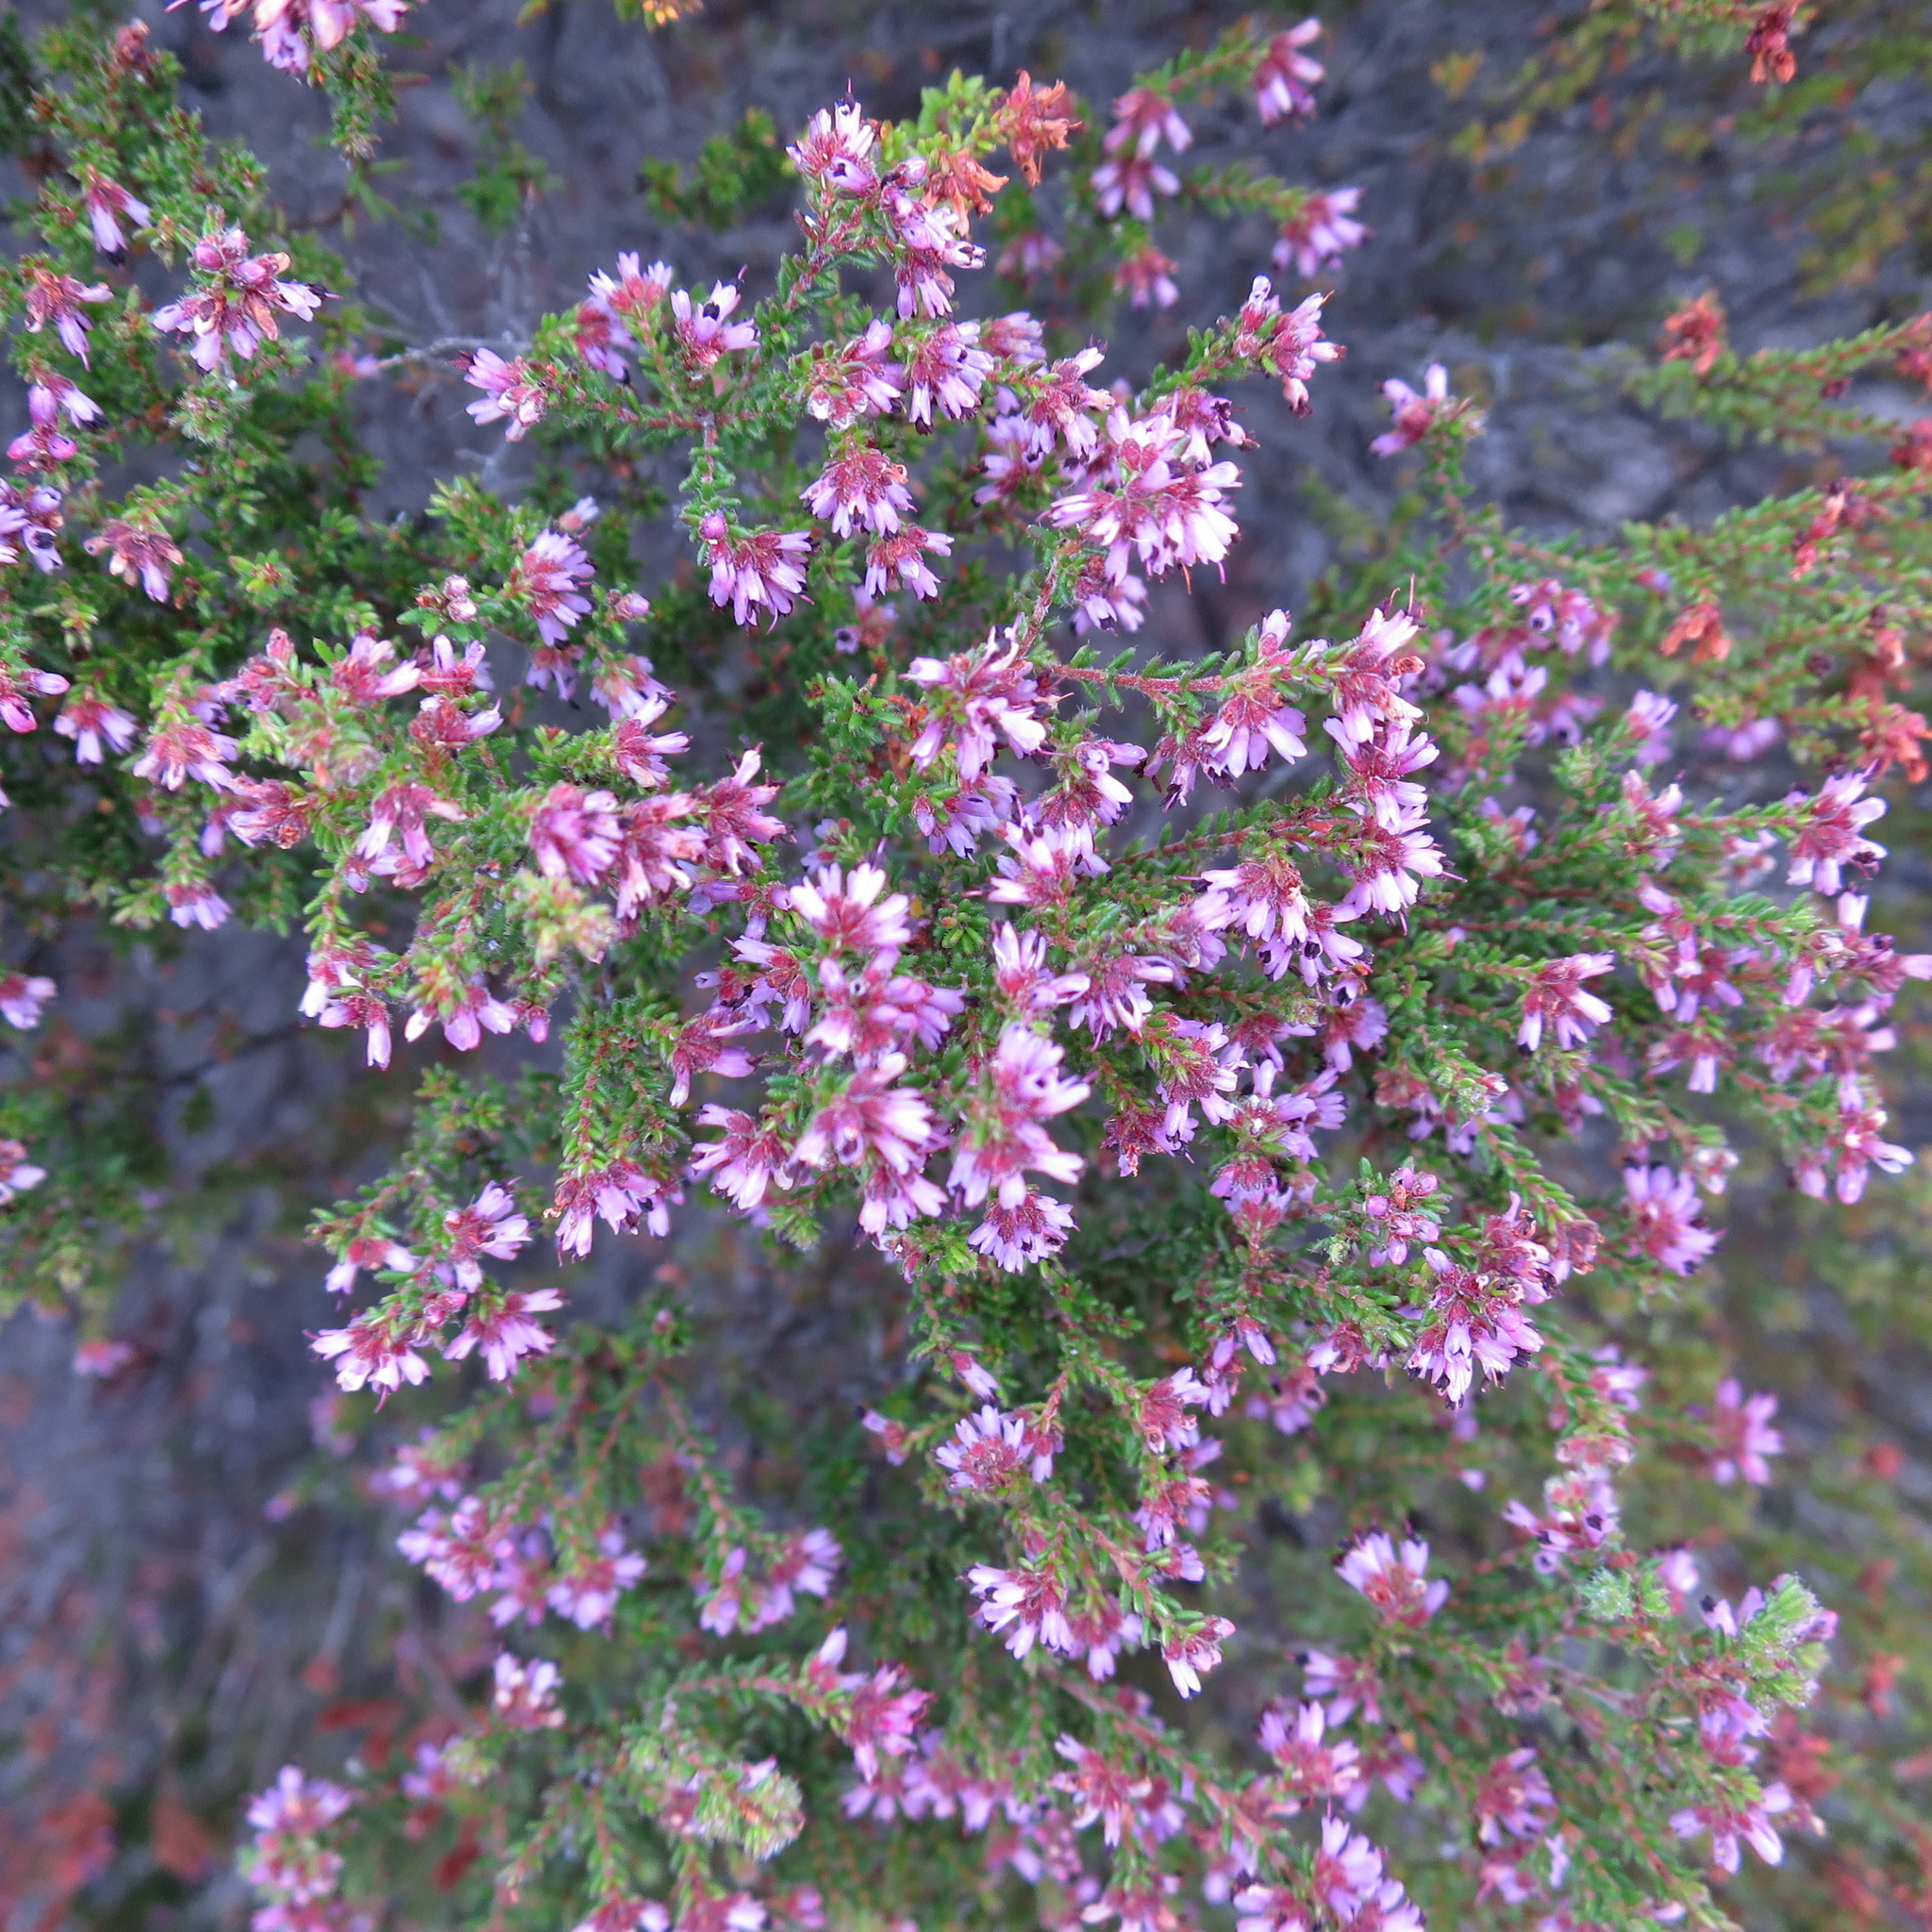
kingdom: Plantae
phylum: Tracheophyta
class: Magnoliopsida
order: Ericales
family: Ericaceae
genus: Erica
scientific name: Erica radicans
